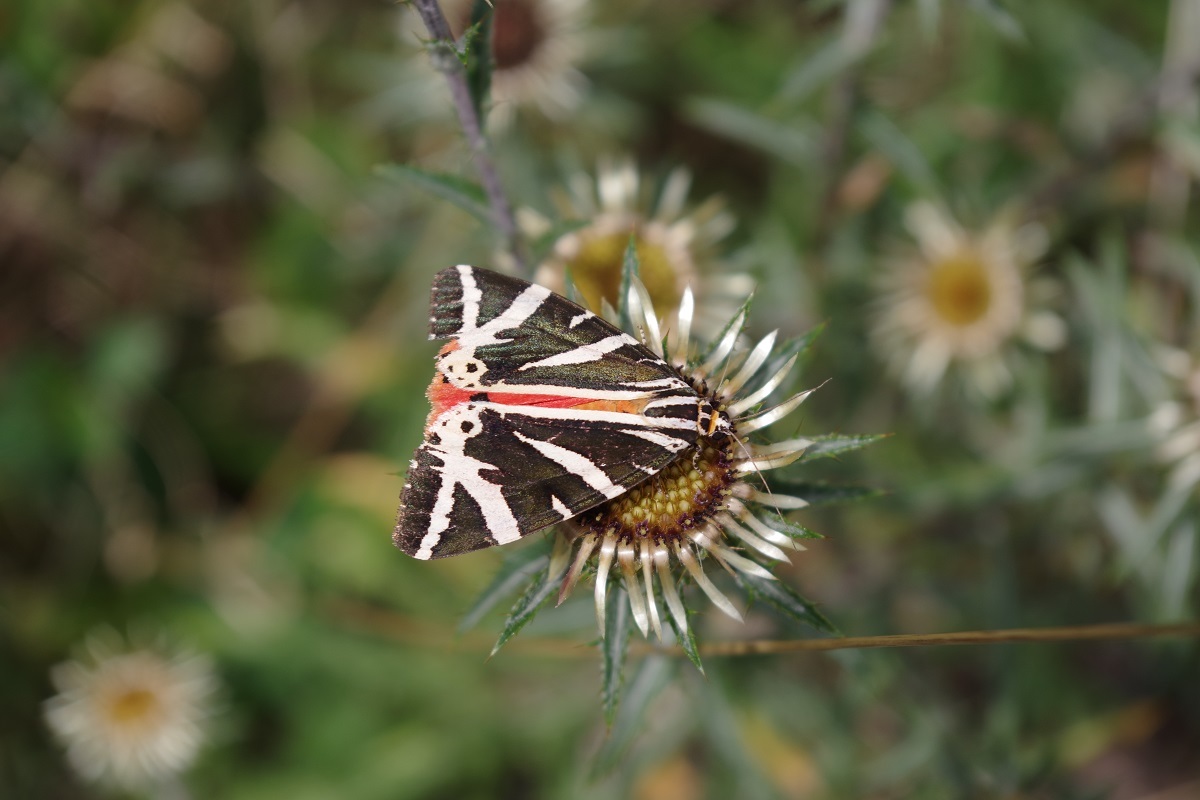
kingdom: Animalia
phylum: Arthropoda
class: Insecta
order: Lepidoptera
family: Erebidae
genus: Euplagia
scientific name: Euplagia quadripunctaria
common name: Jersey tiger
